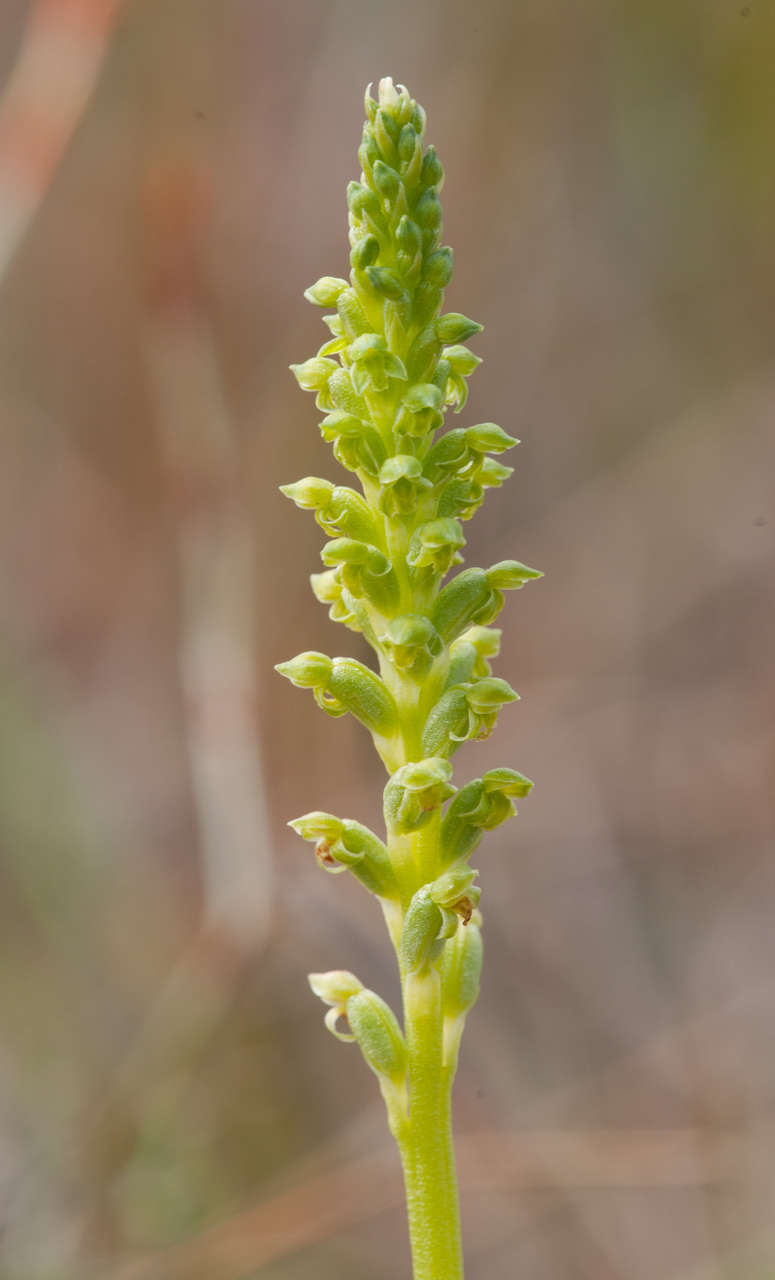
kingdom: Plantae
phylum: Tracheophyta
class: Liliopsida
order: Asparagales
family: Orchidaceae
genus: Microtis
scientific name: Microtis unifolia
